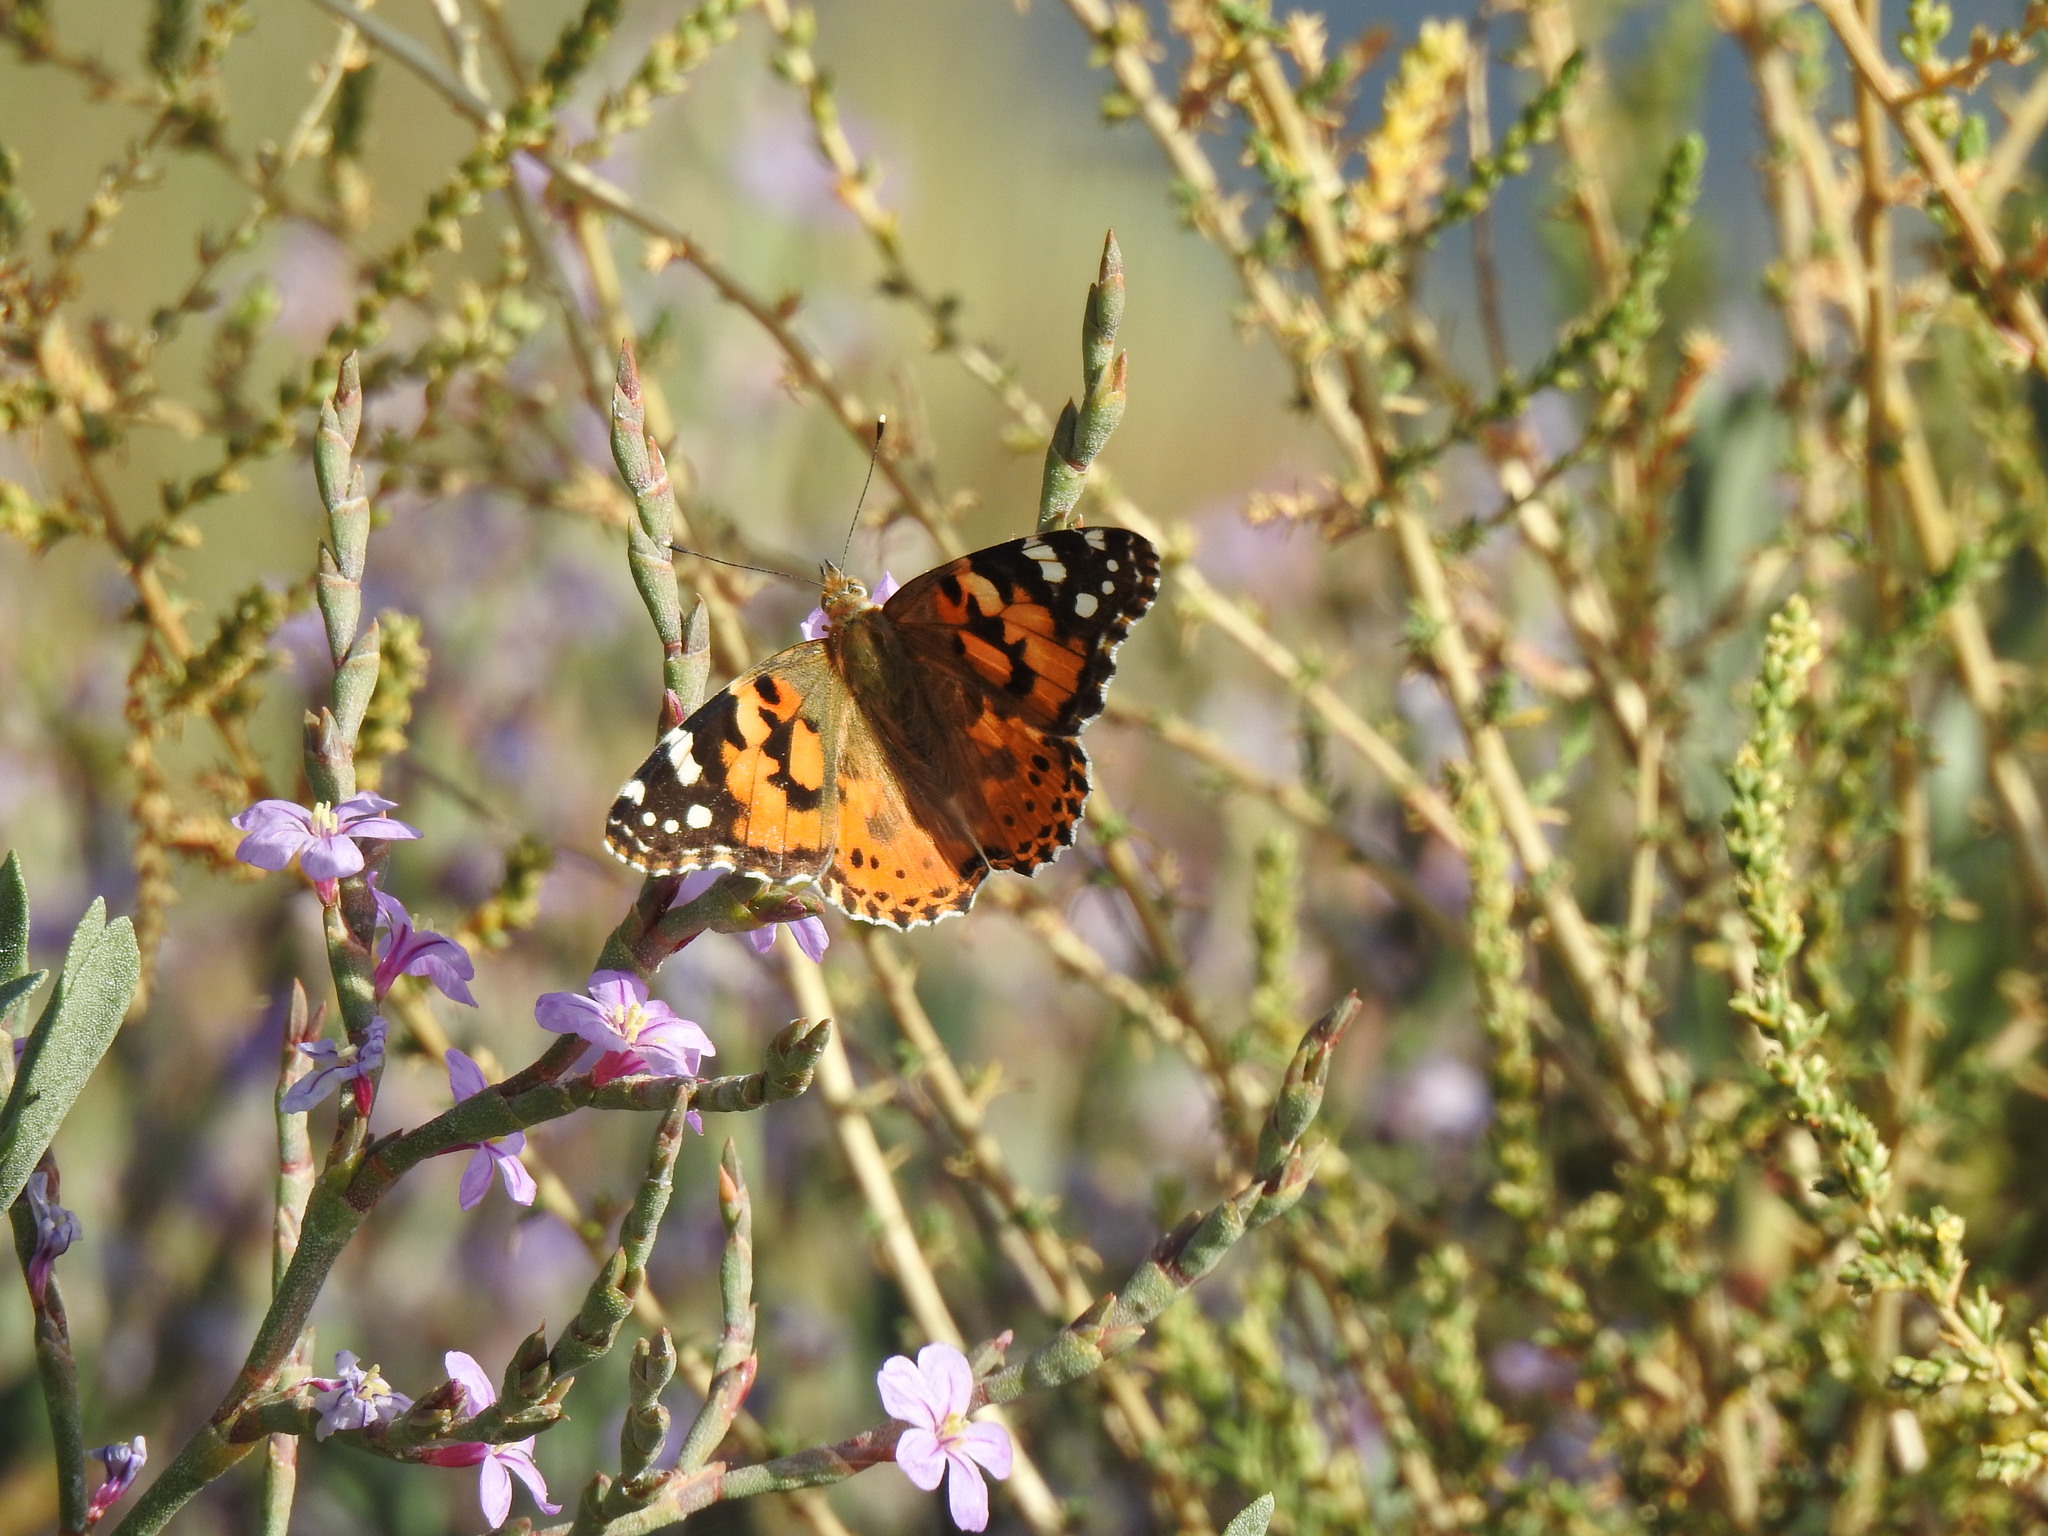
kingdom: Animalia
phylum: Arthropoda
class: Insecta
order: Lepidoptera
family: Nymphalidae
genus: Vanessa
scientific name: Vanessa cardui
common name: Painted lady
